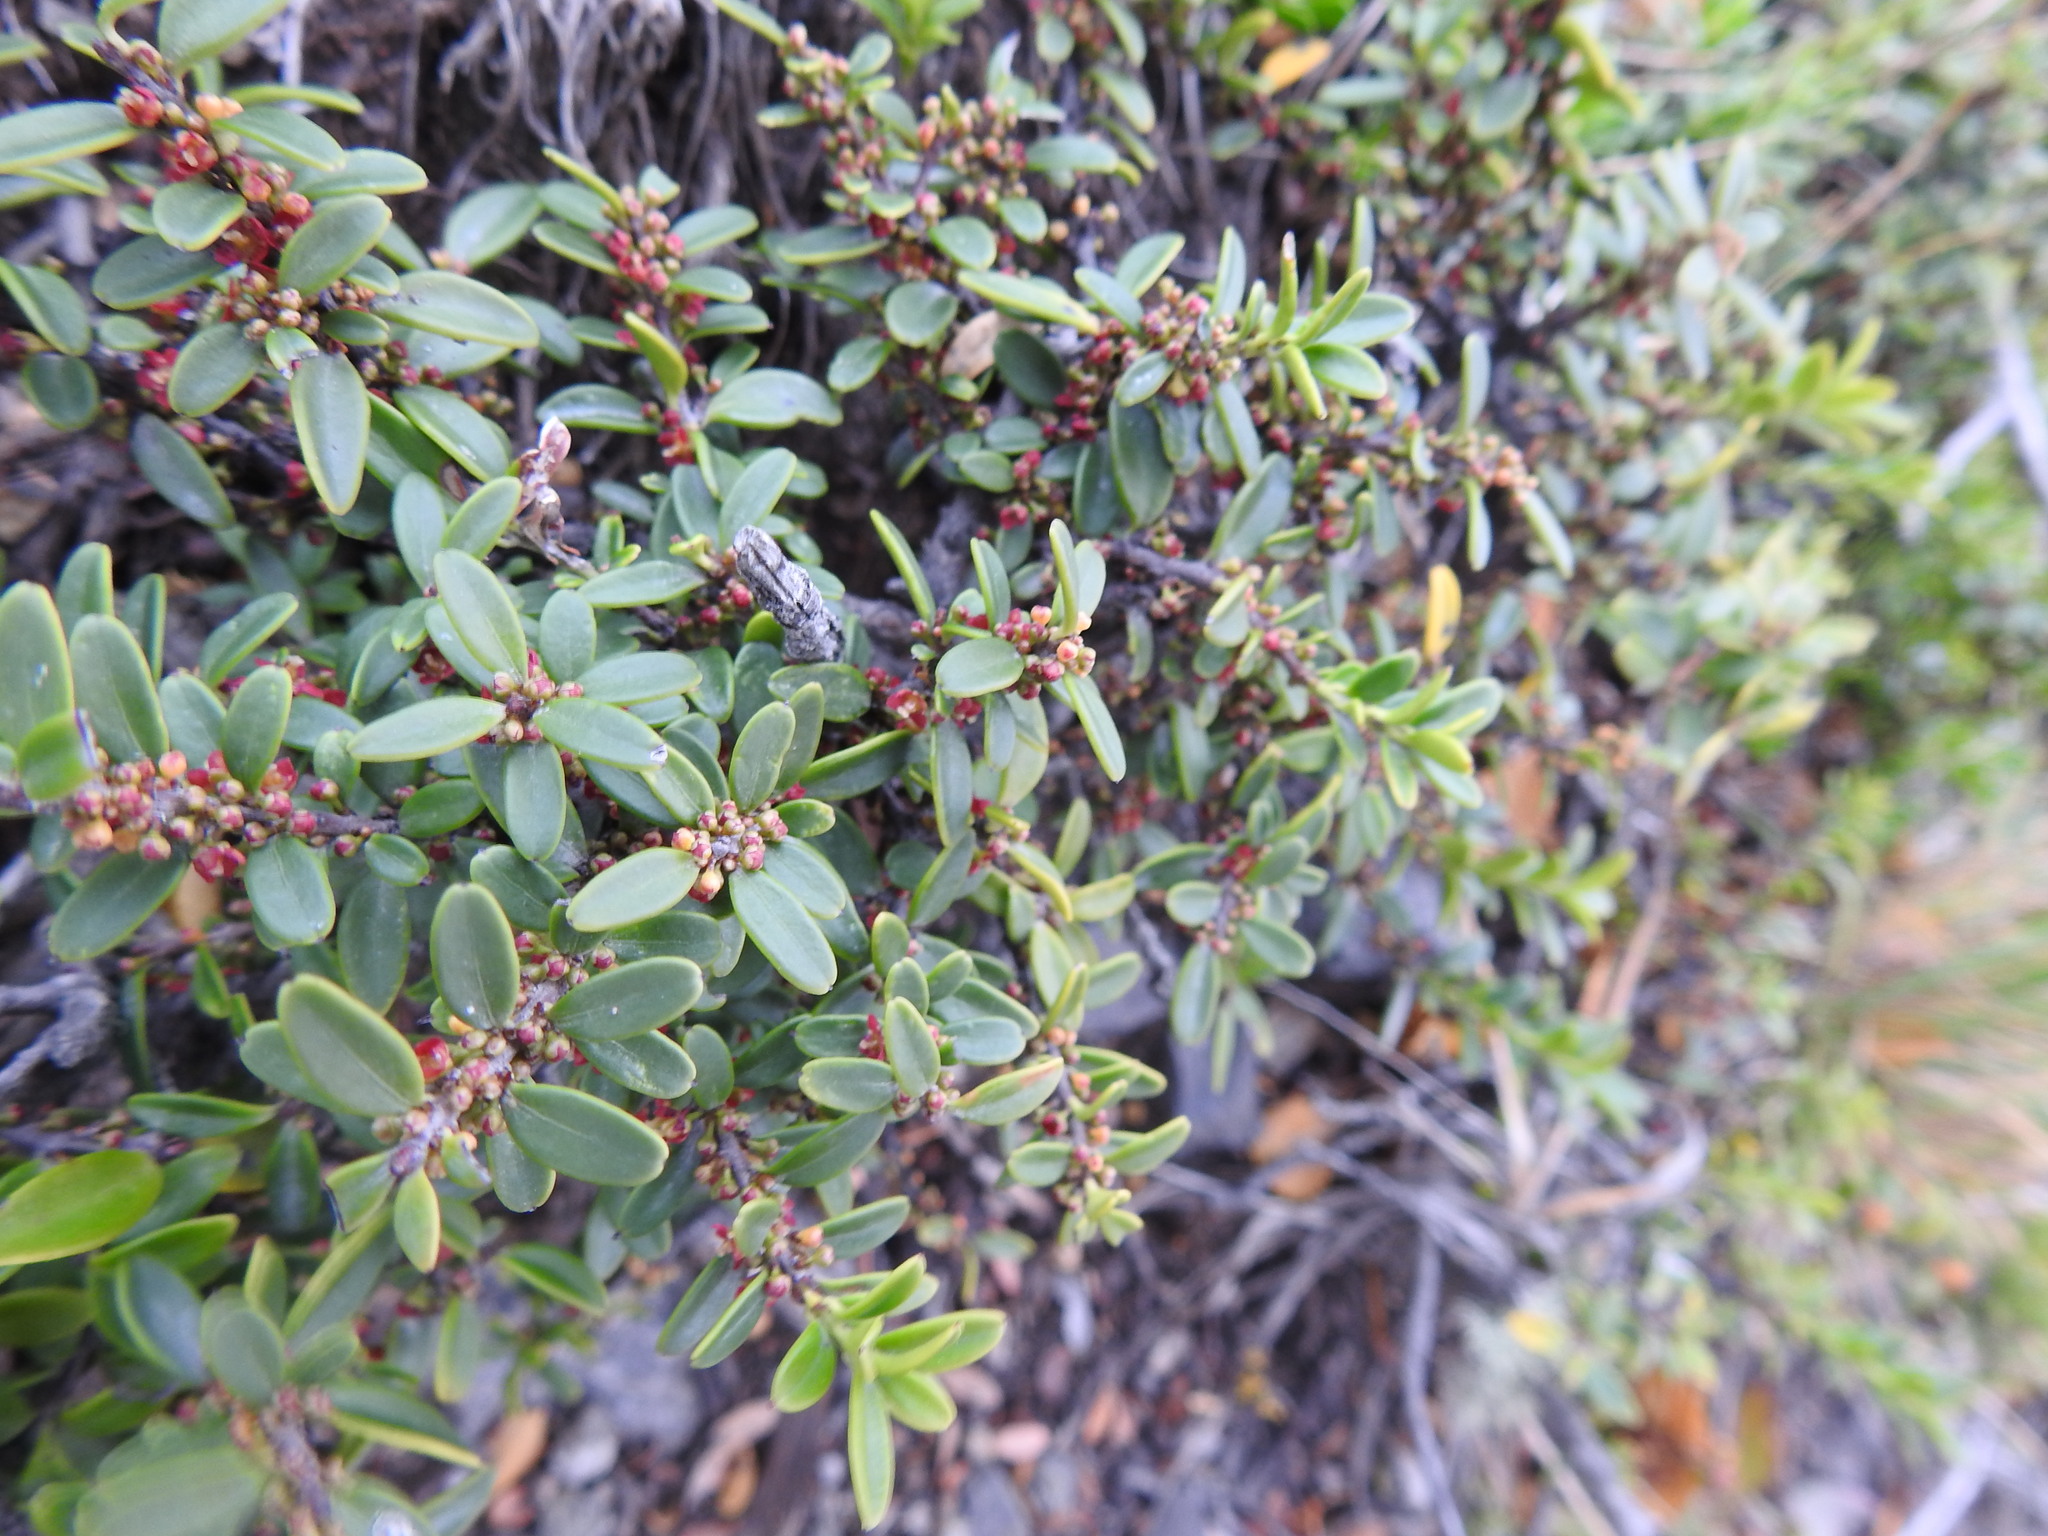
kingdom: Plantae
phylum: Tracheophyta
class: Magnoliopsida
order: Celastrales
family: Celastraceae
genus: Maytenus
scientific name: Maytenus disticha
